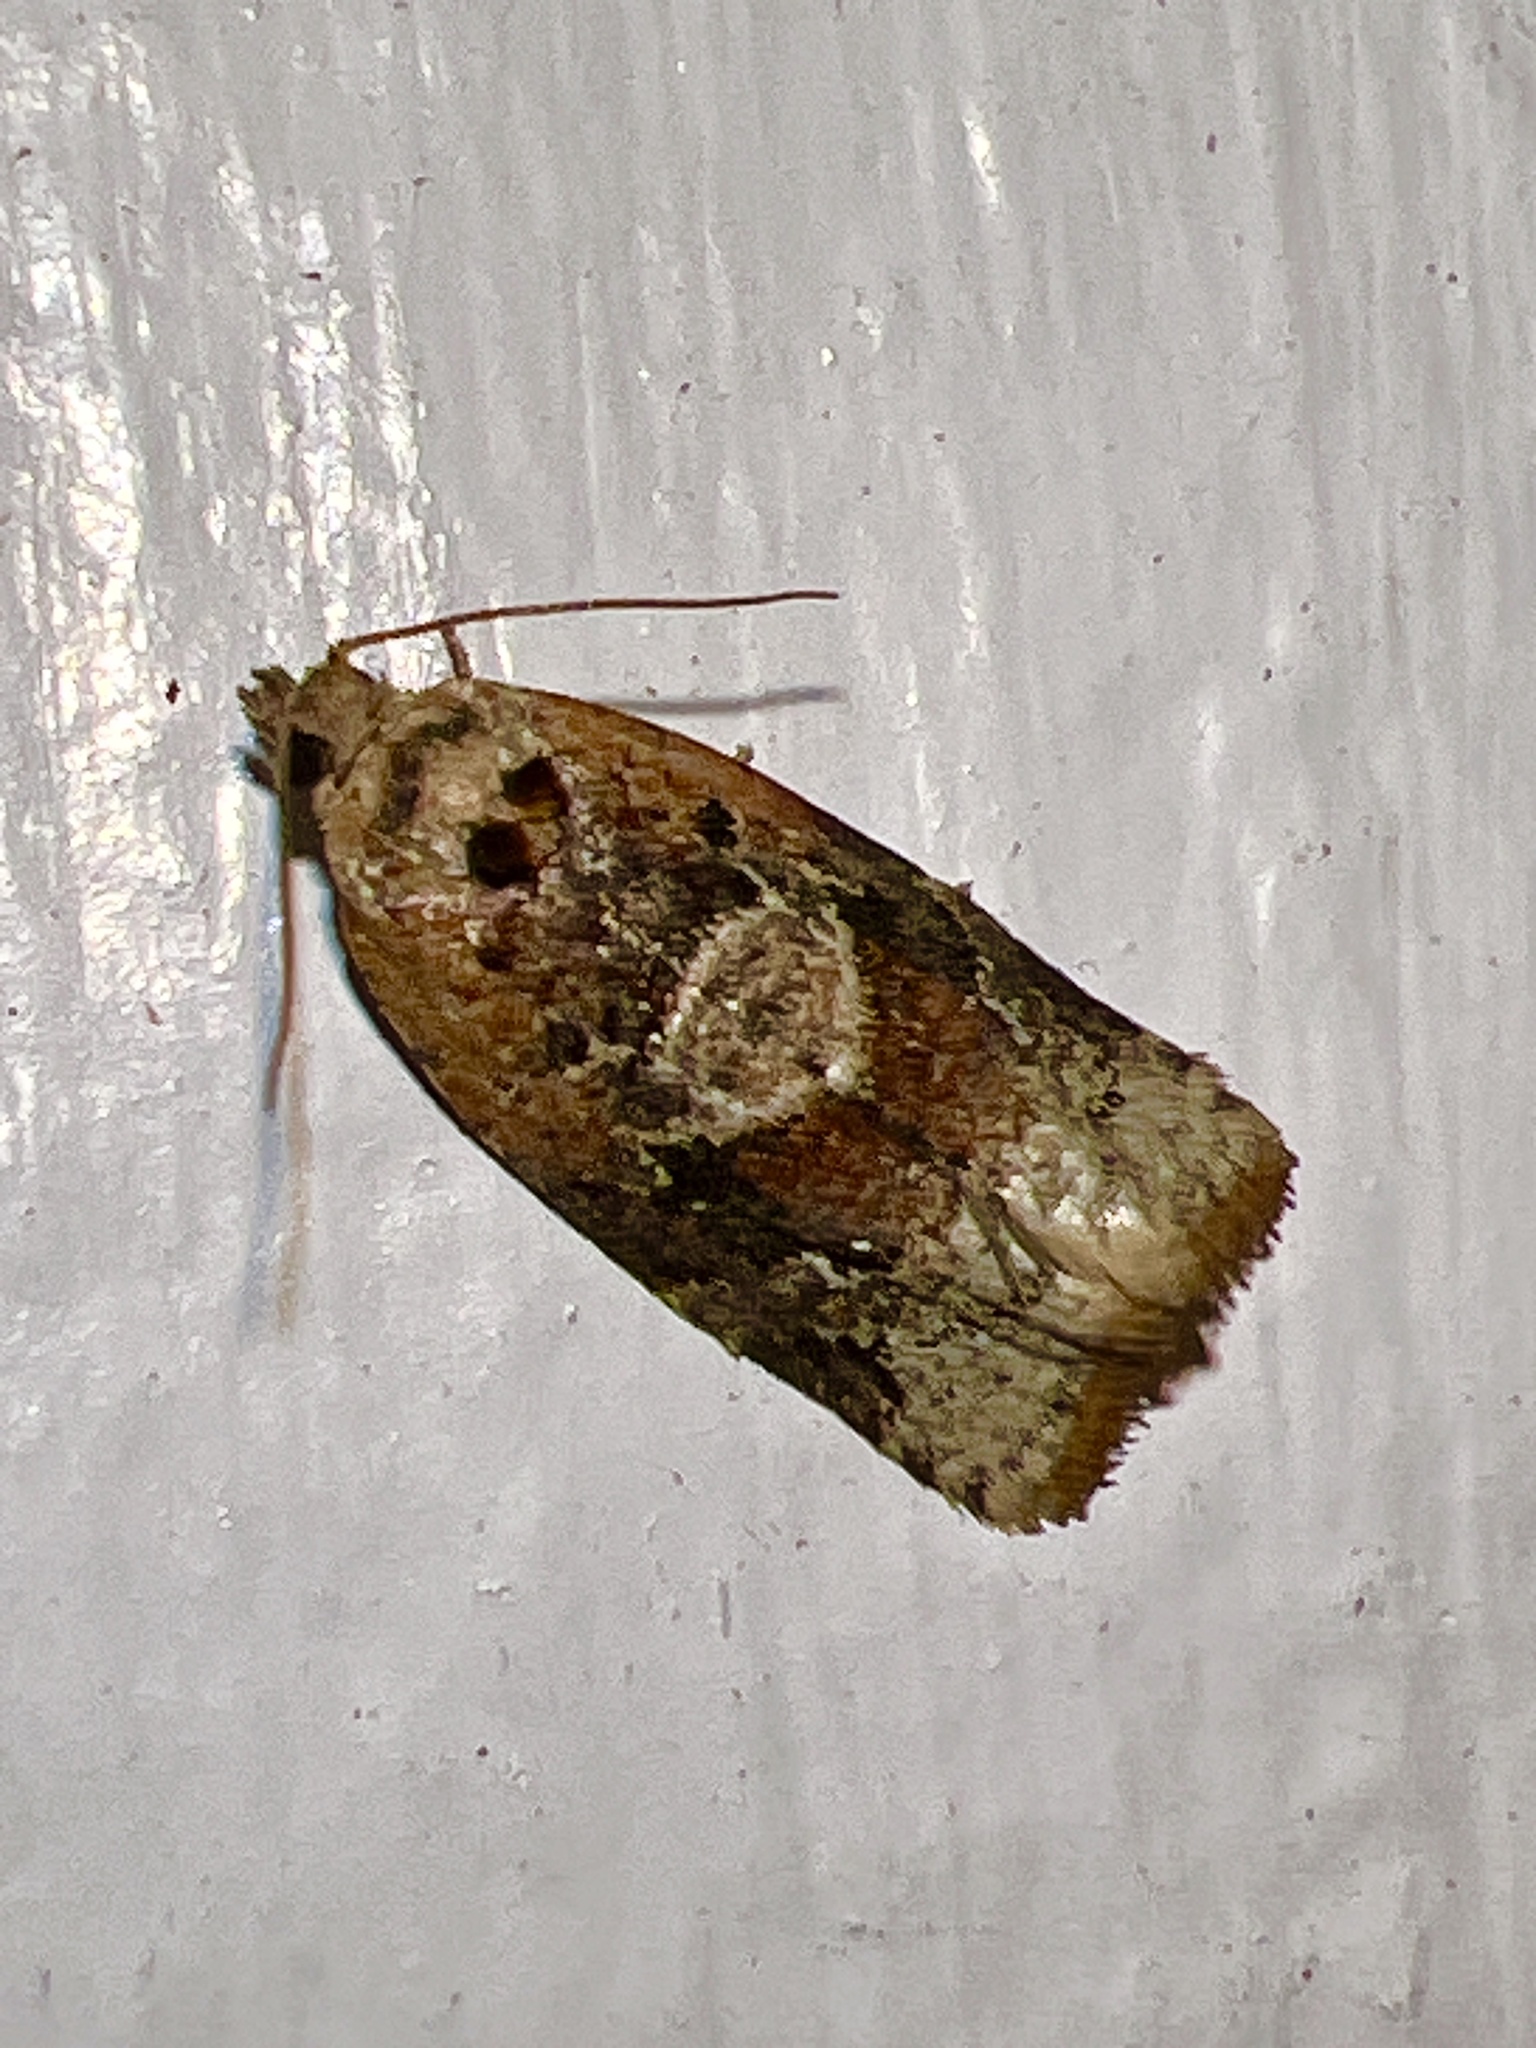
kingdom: Animalia
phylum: Arthropoda
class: Insecta
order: Lepidoptera
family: Tortricidae
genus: Argyrotaenia
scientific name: Argyrotaenia velutinana
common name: Red-banded leafroller moth
